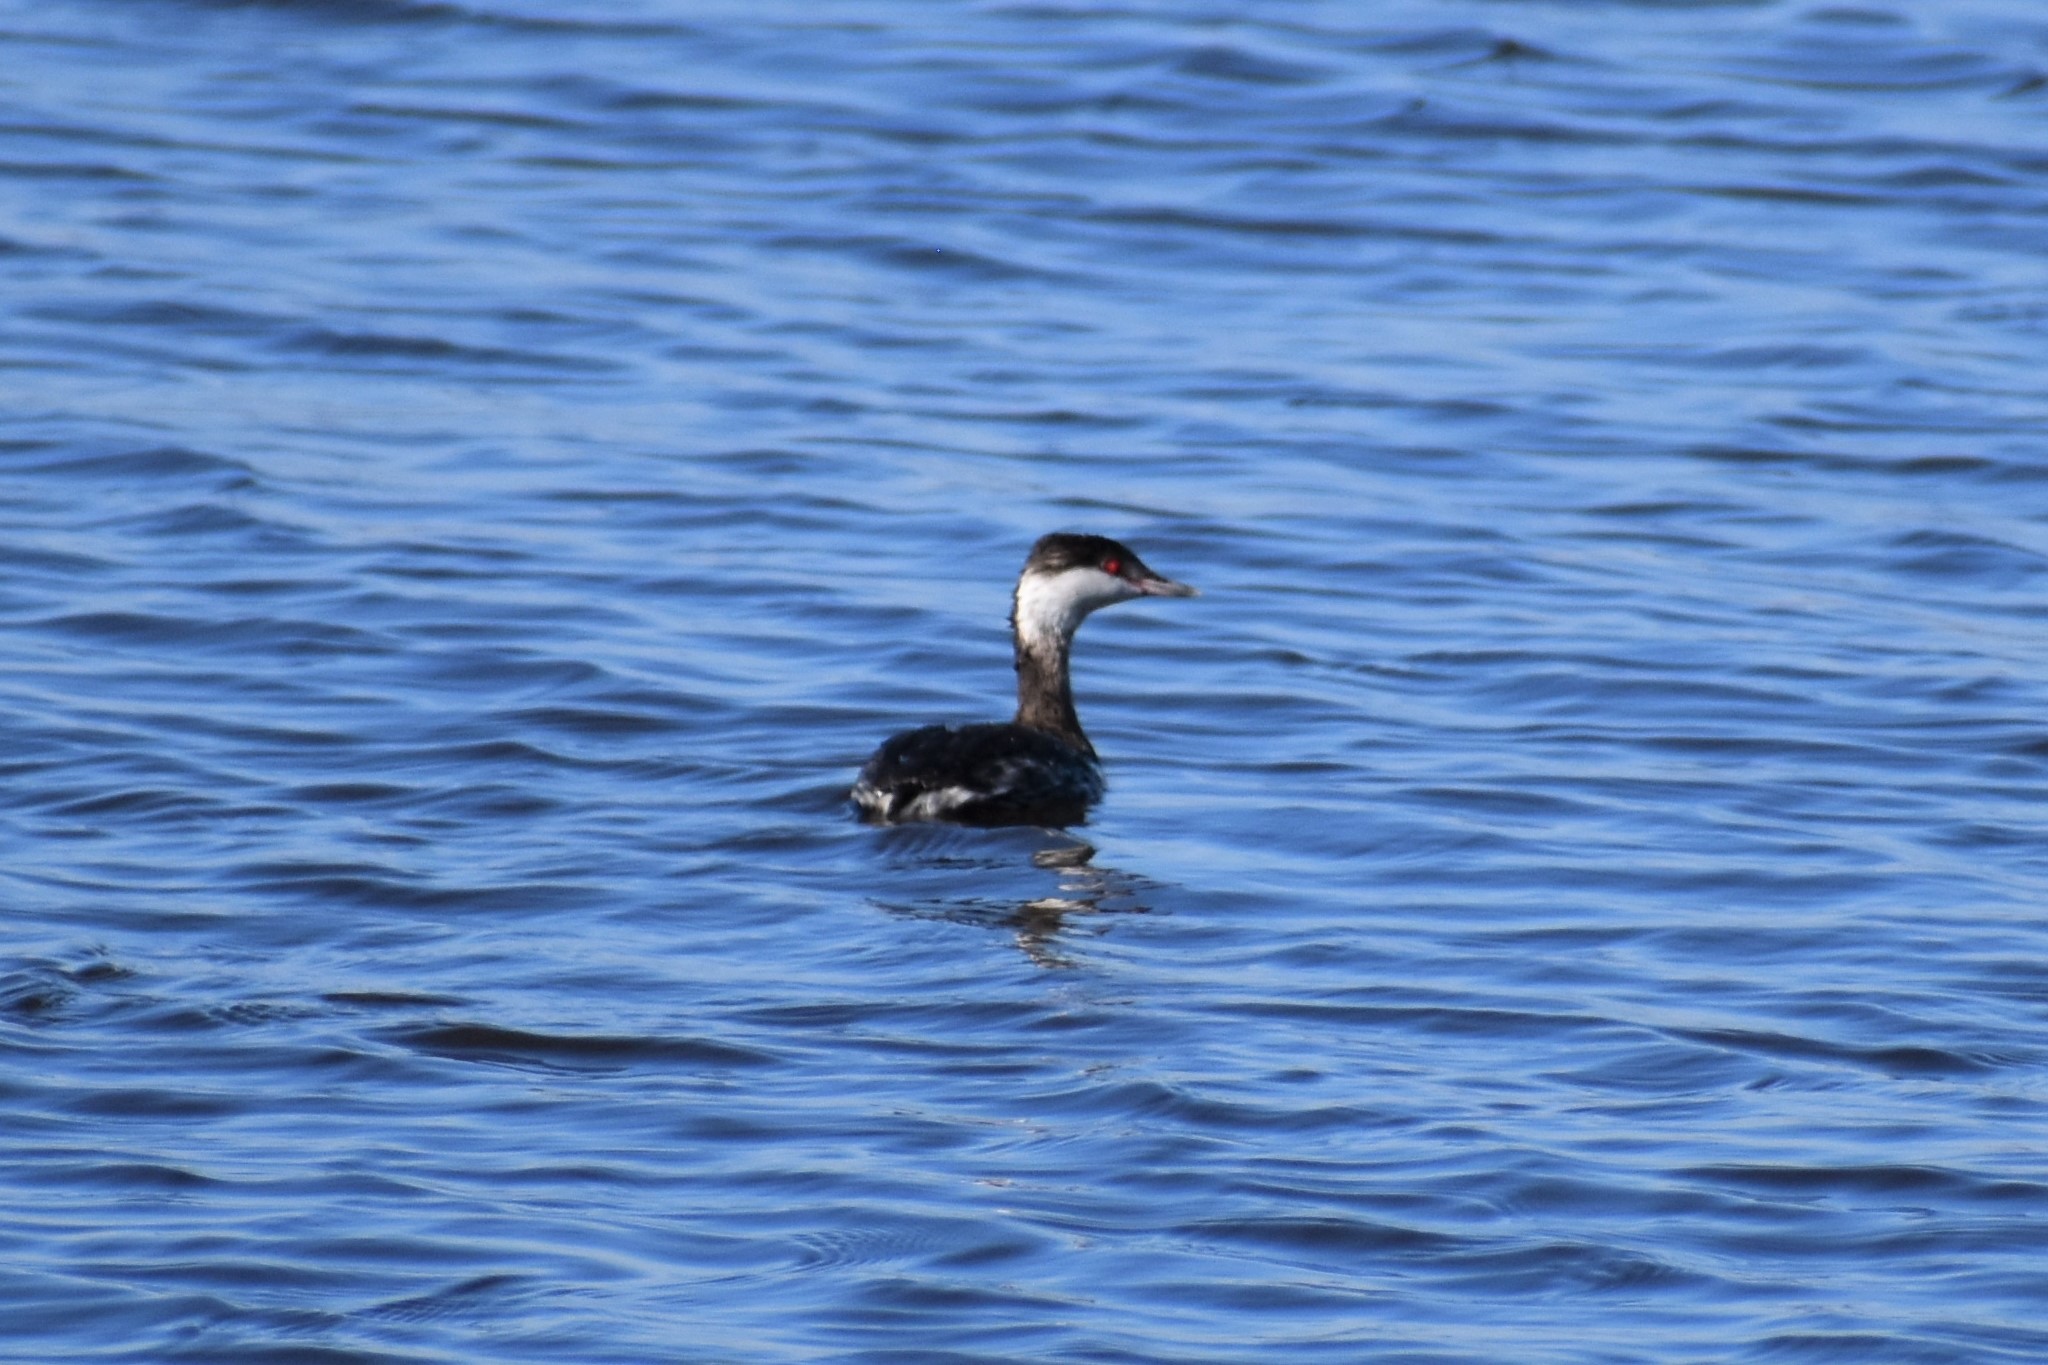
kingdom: Animalia
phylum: Chordata
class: Aves
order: Podicipediformes
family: Podicipedidae
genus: Podiceps
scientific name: Podiceps auritus
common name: Horned grebe
